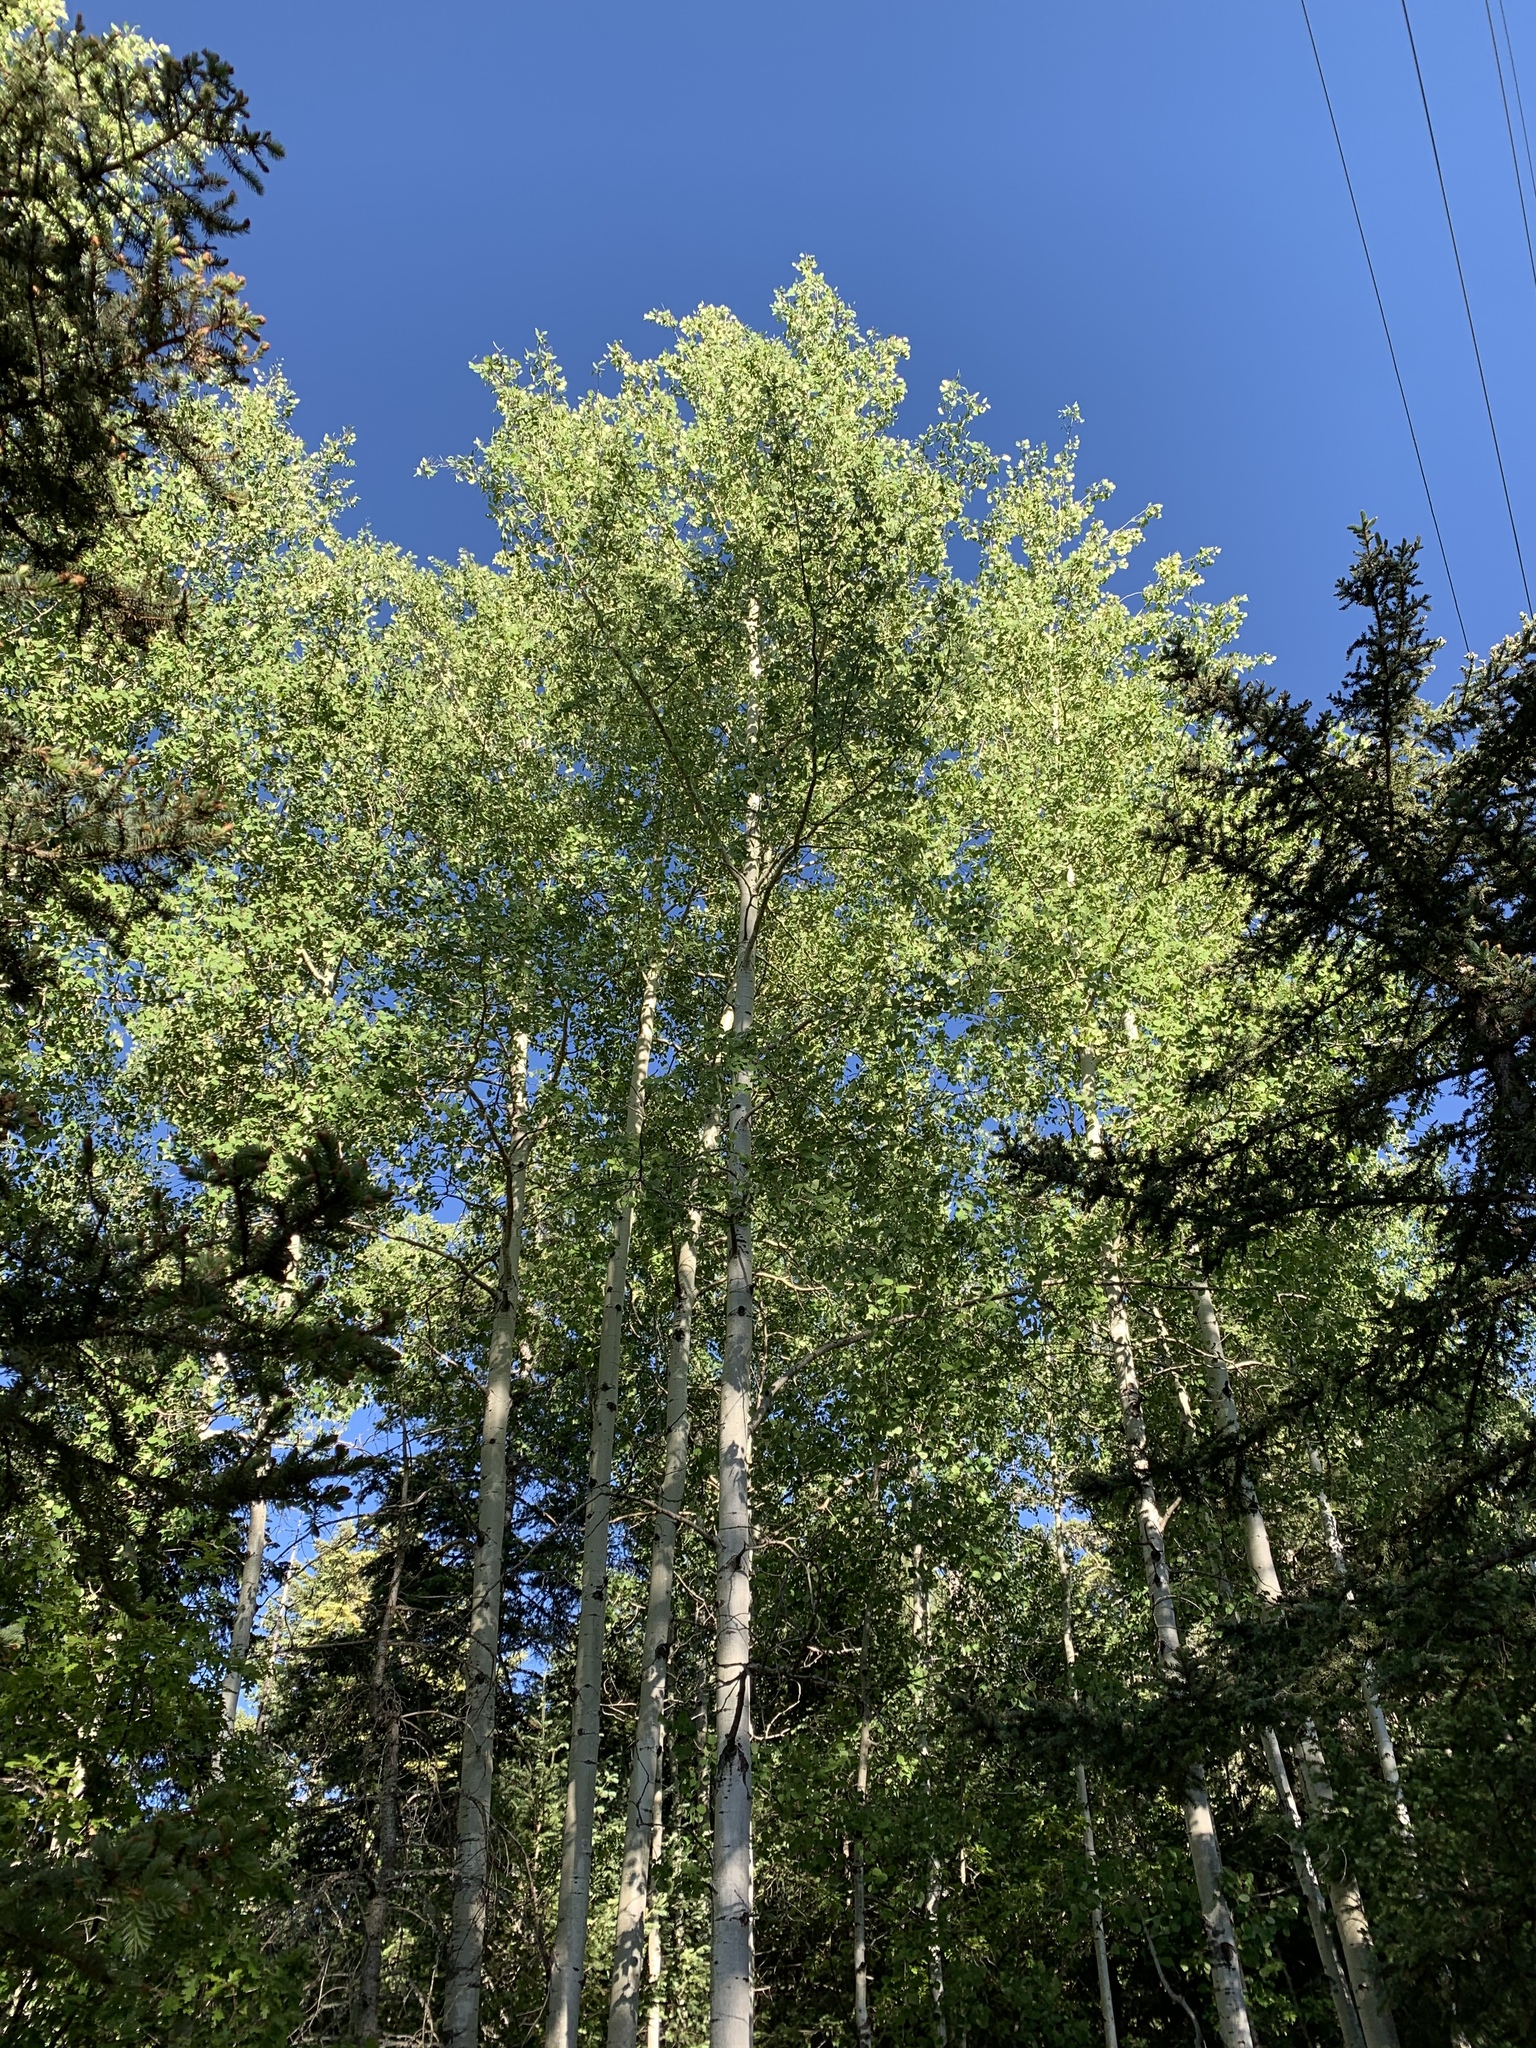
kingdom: Plantae
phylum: Tracheophyta
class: Magnoliopsida
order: Malpighiales
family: Salicaceae
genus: Populus
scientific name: Populus tremuloides
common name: Quaking aspen
